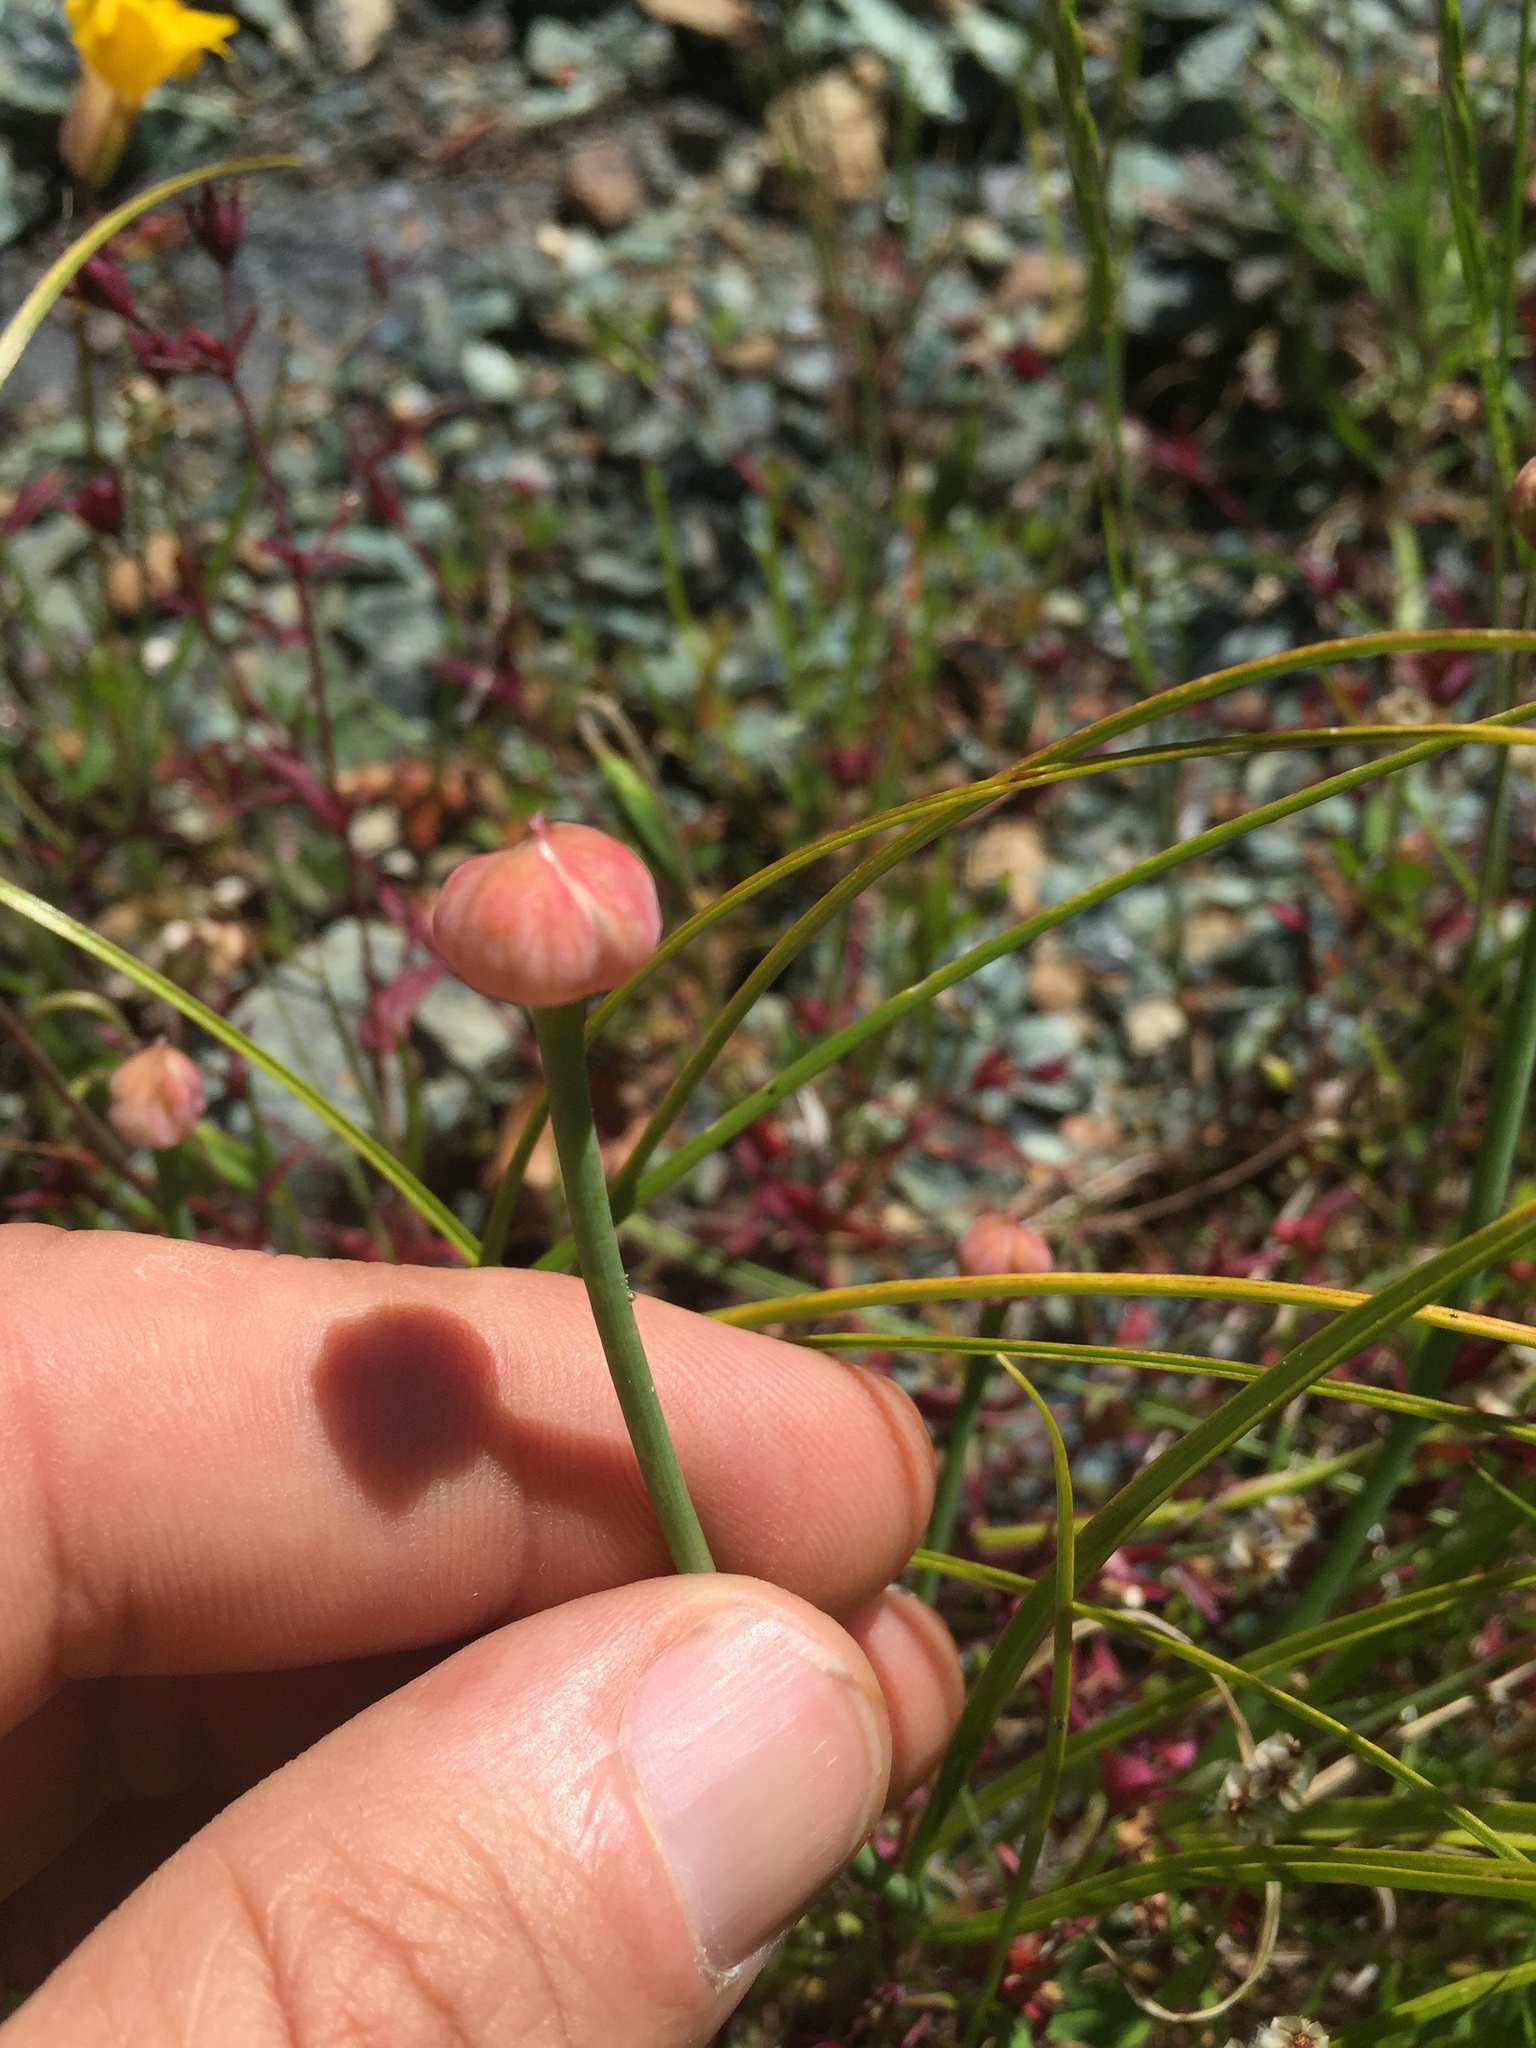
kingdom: Plantae
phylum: Tracheophyta
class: Liliopsida
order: Asparagales
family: Amaryllidaceae
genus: Allium
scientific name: Allium amplectens
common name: Narrow-leaved onion
